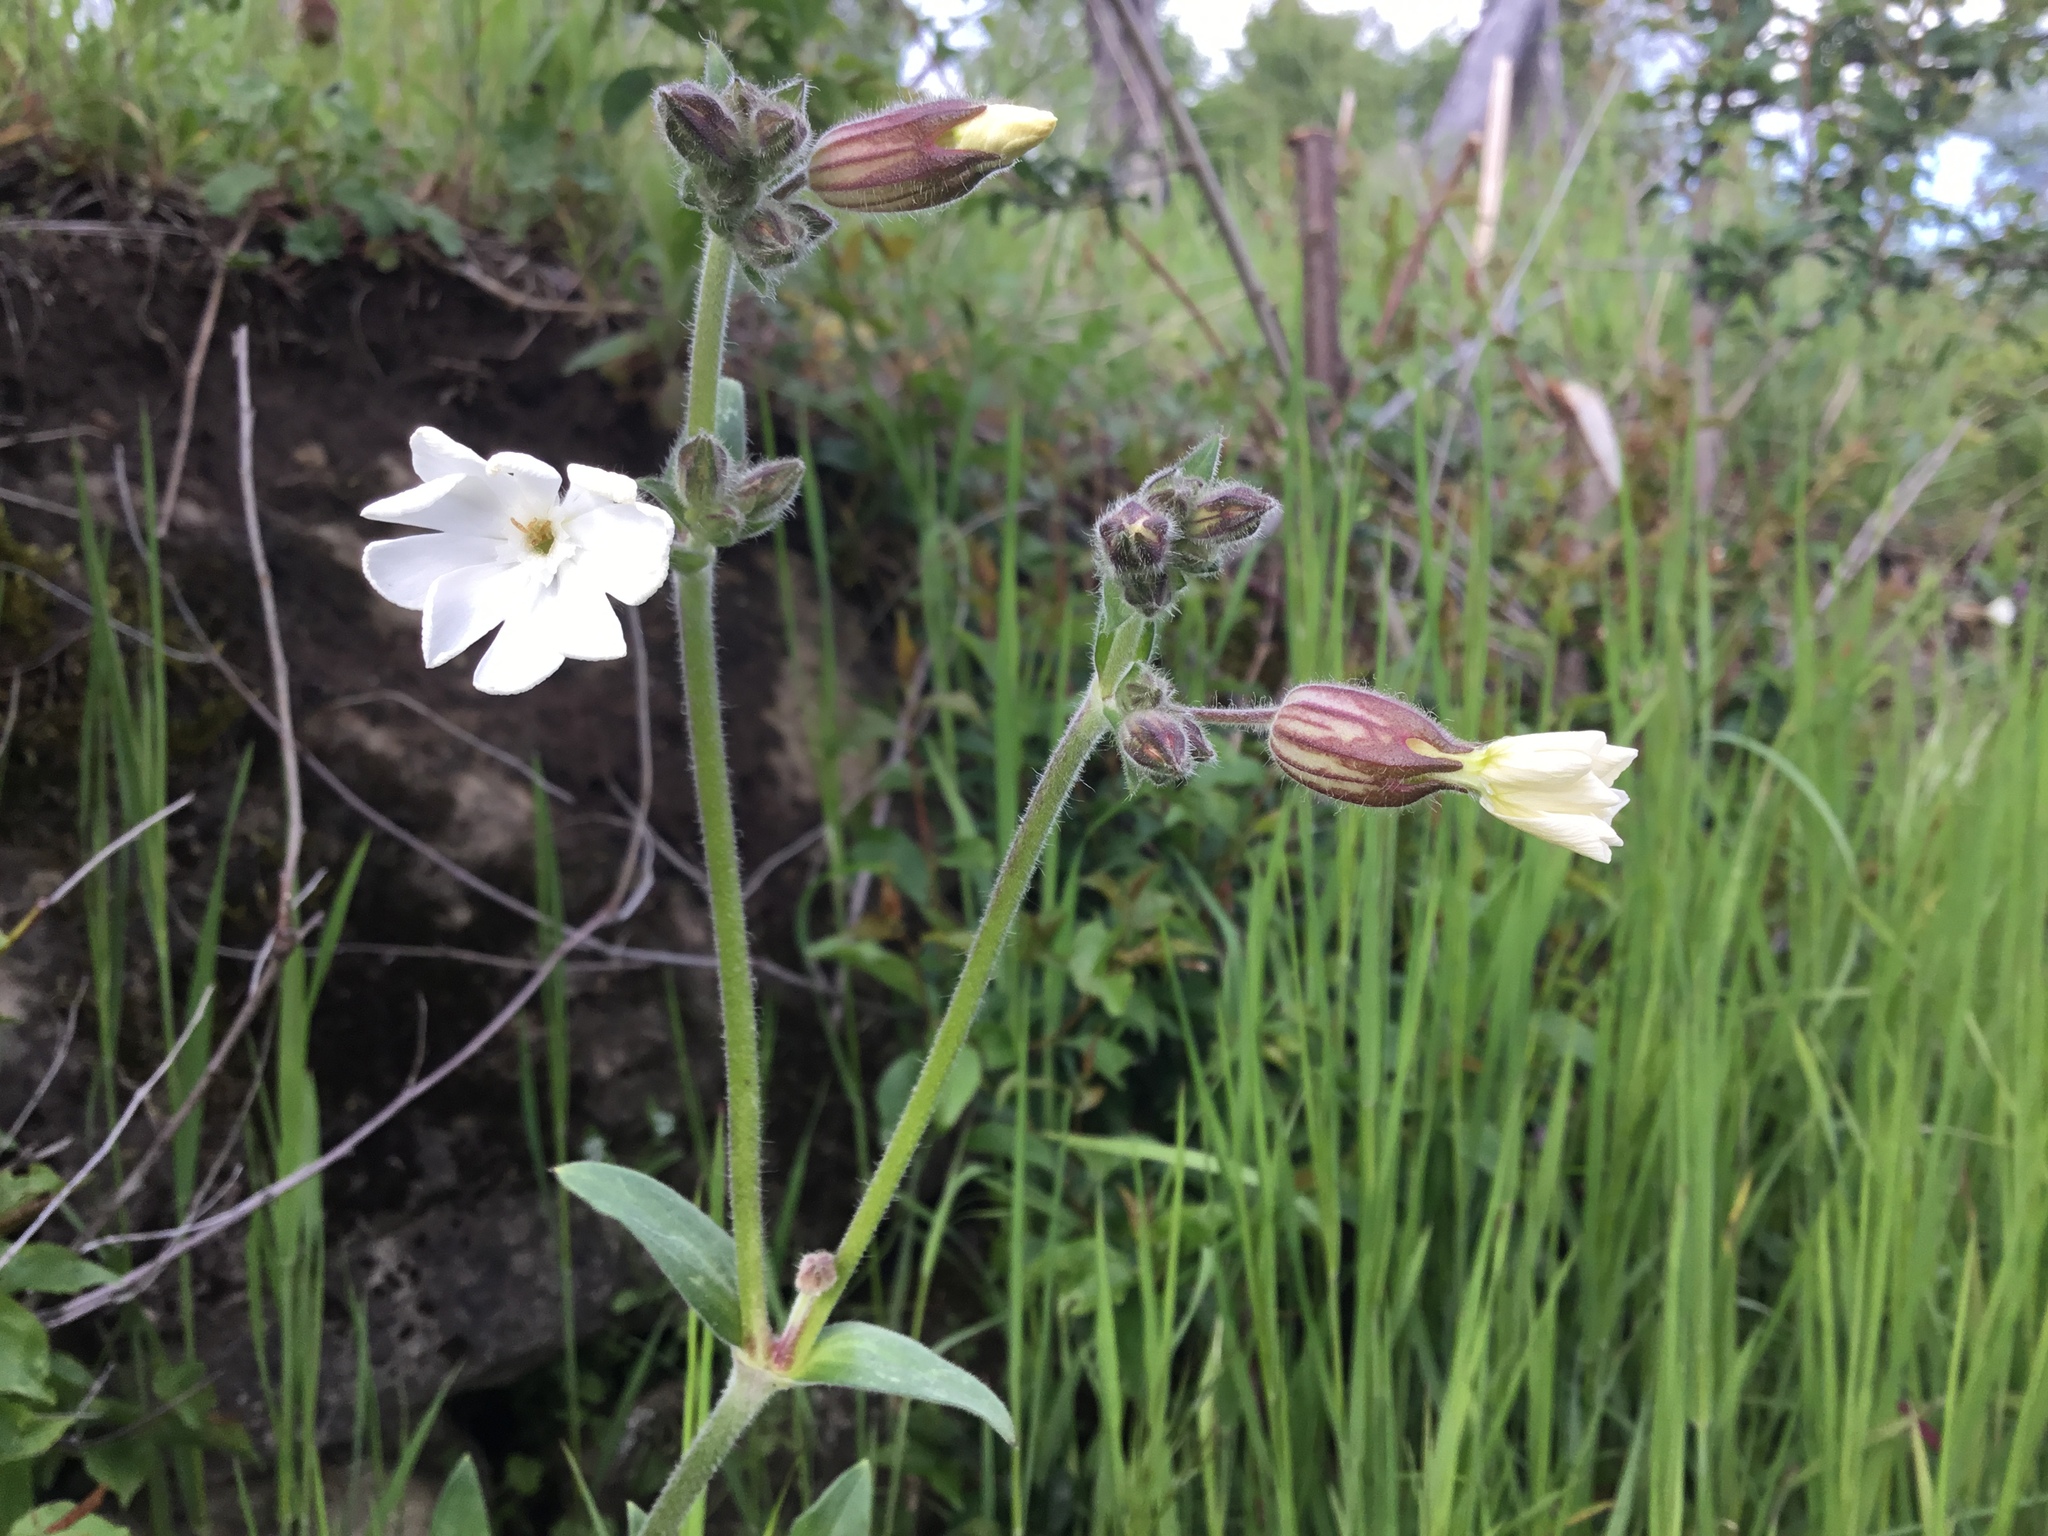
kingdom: Plantae
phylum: Tracheophyta
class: Magnoliopsida
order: Caryophyllales
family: Caryophyllaceae
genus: Silene
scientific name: Silene latifolia
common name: White campion
